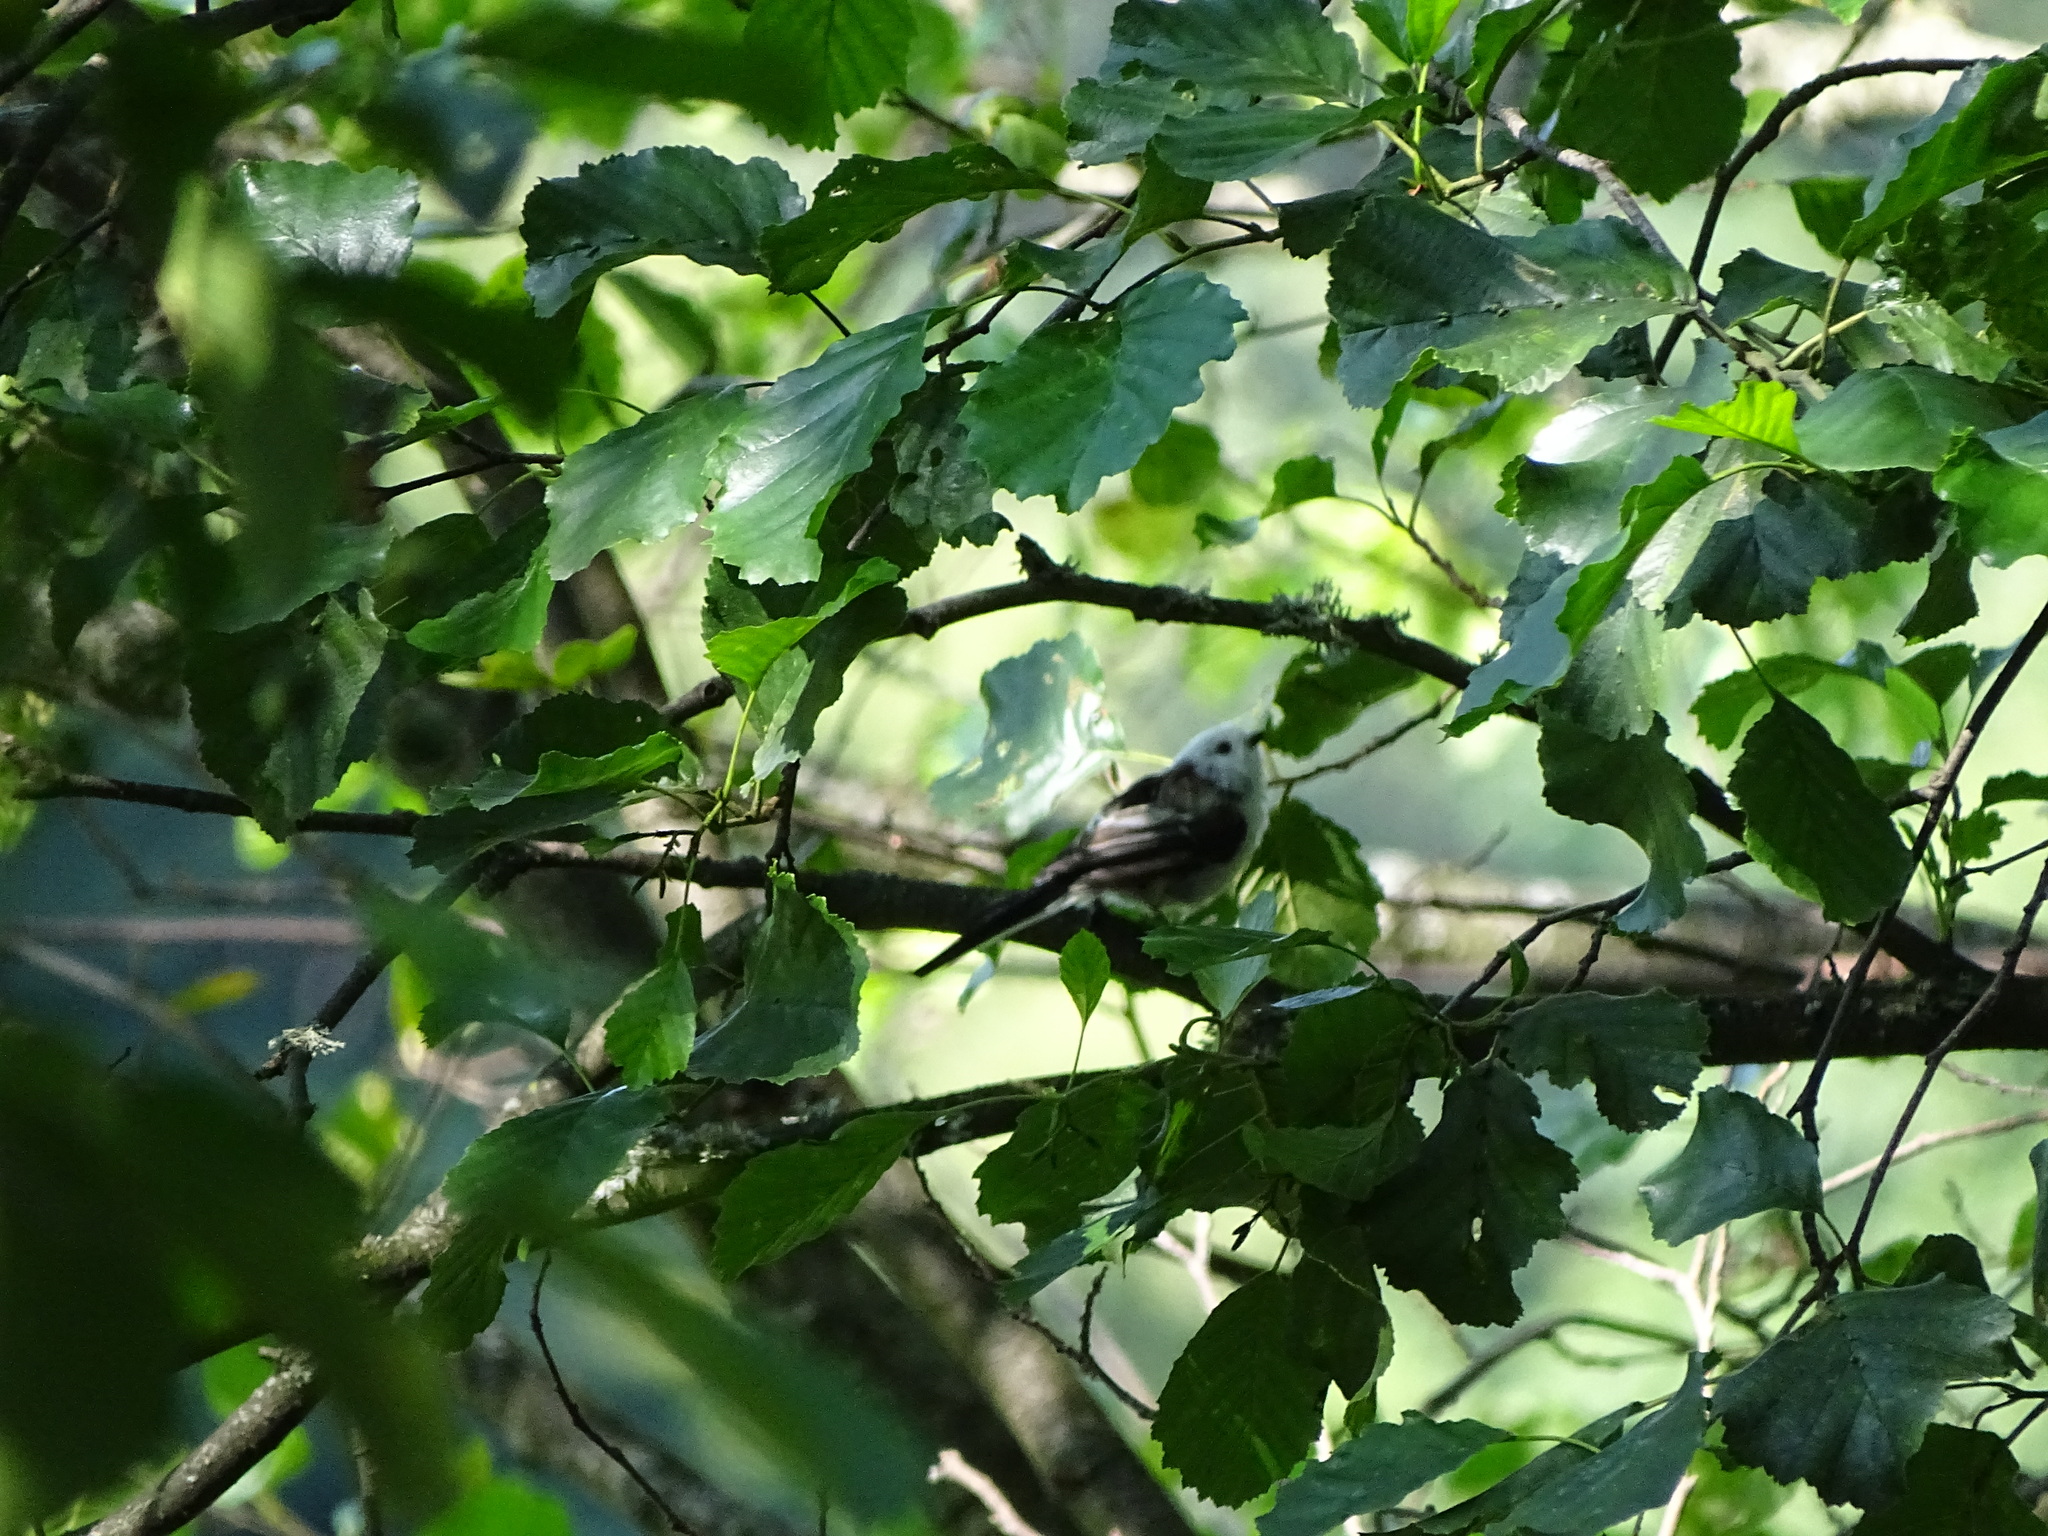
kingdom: Animalia
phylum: Chordata
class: Aves
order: Passeriformes
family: Aegithalidae
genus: Aegithalos
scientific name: Aegithalos caudatus
